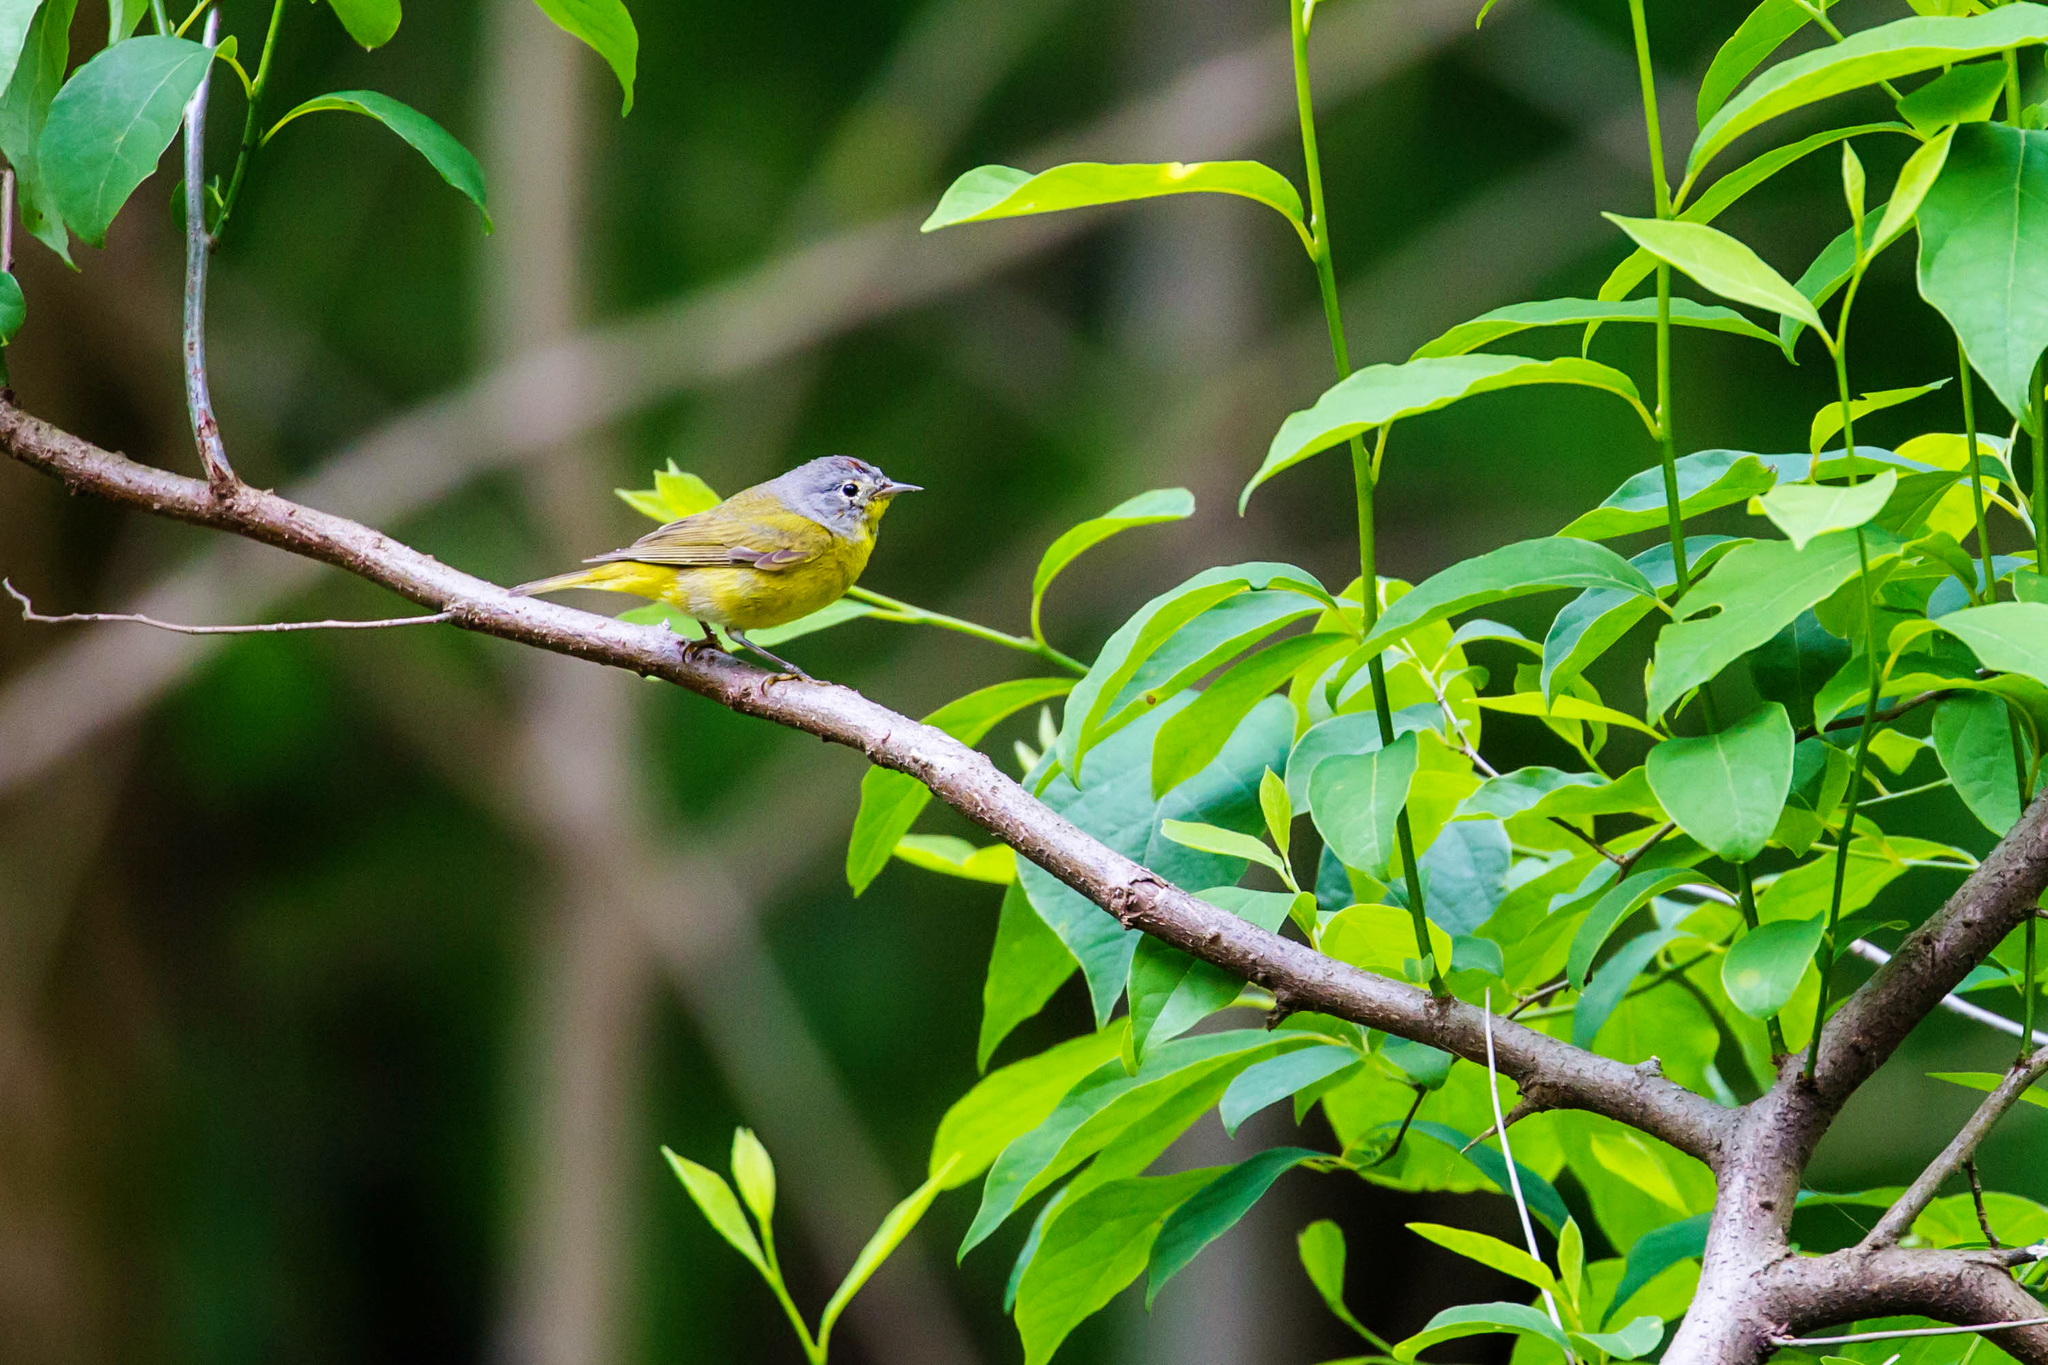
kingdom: Animalia
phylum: Chordata
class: Aves
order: Passeriformes
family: Parulidae
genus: Leiothlypis
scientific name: Leiothlypis ruficapilla
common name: Nashville warbler
